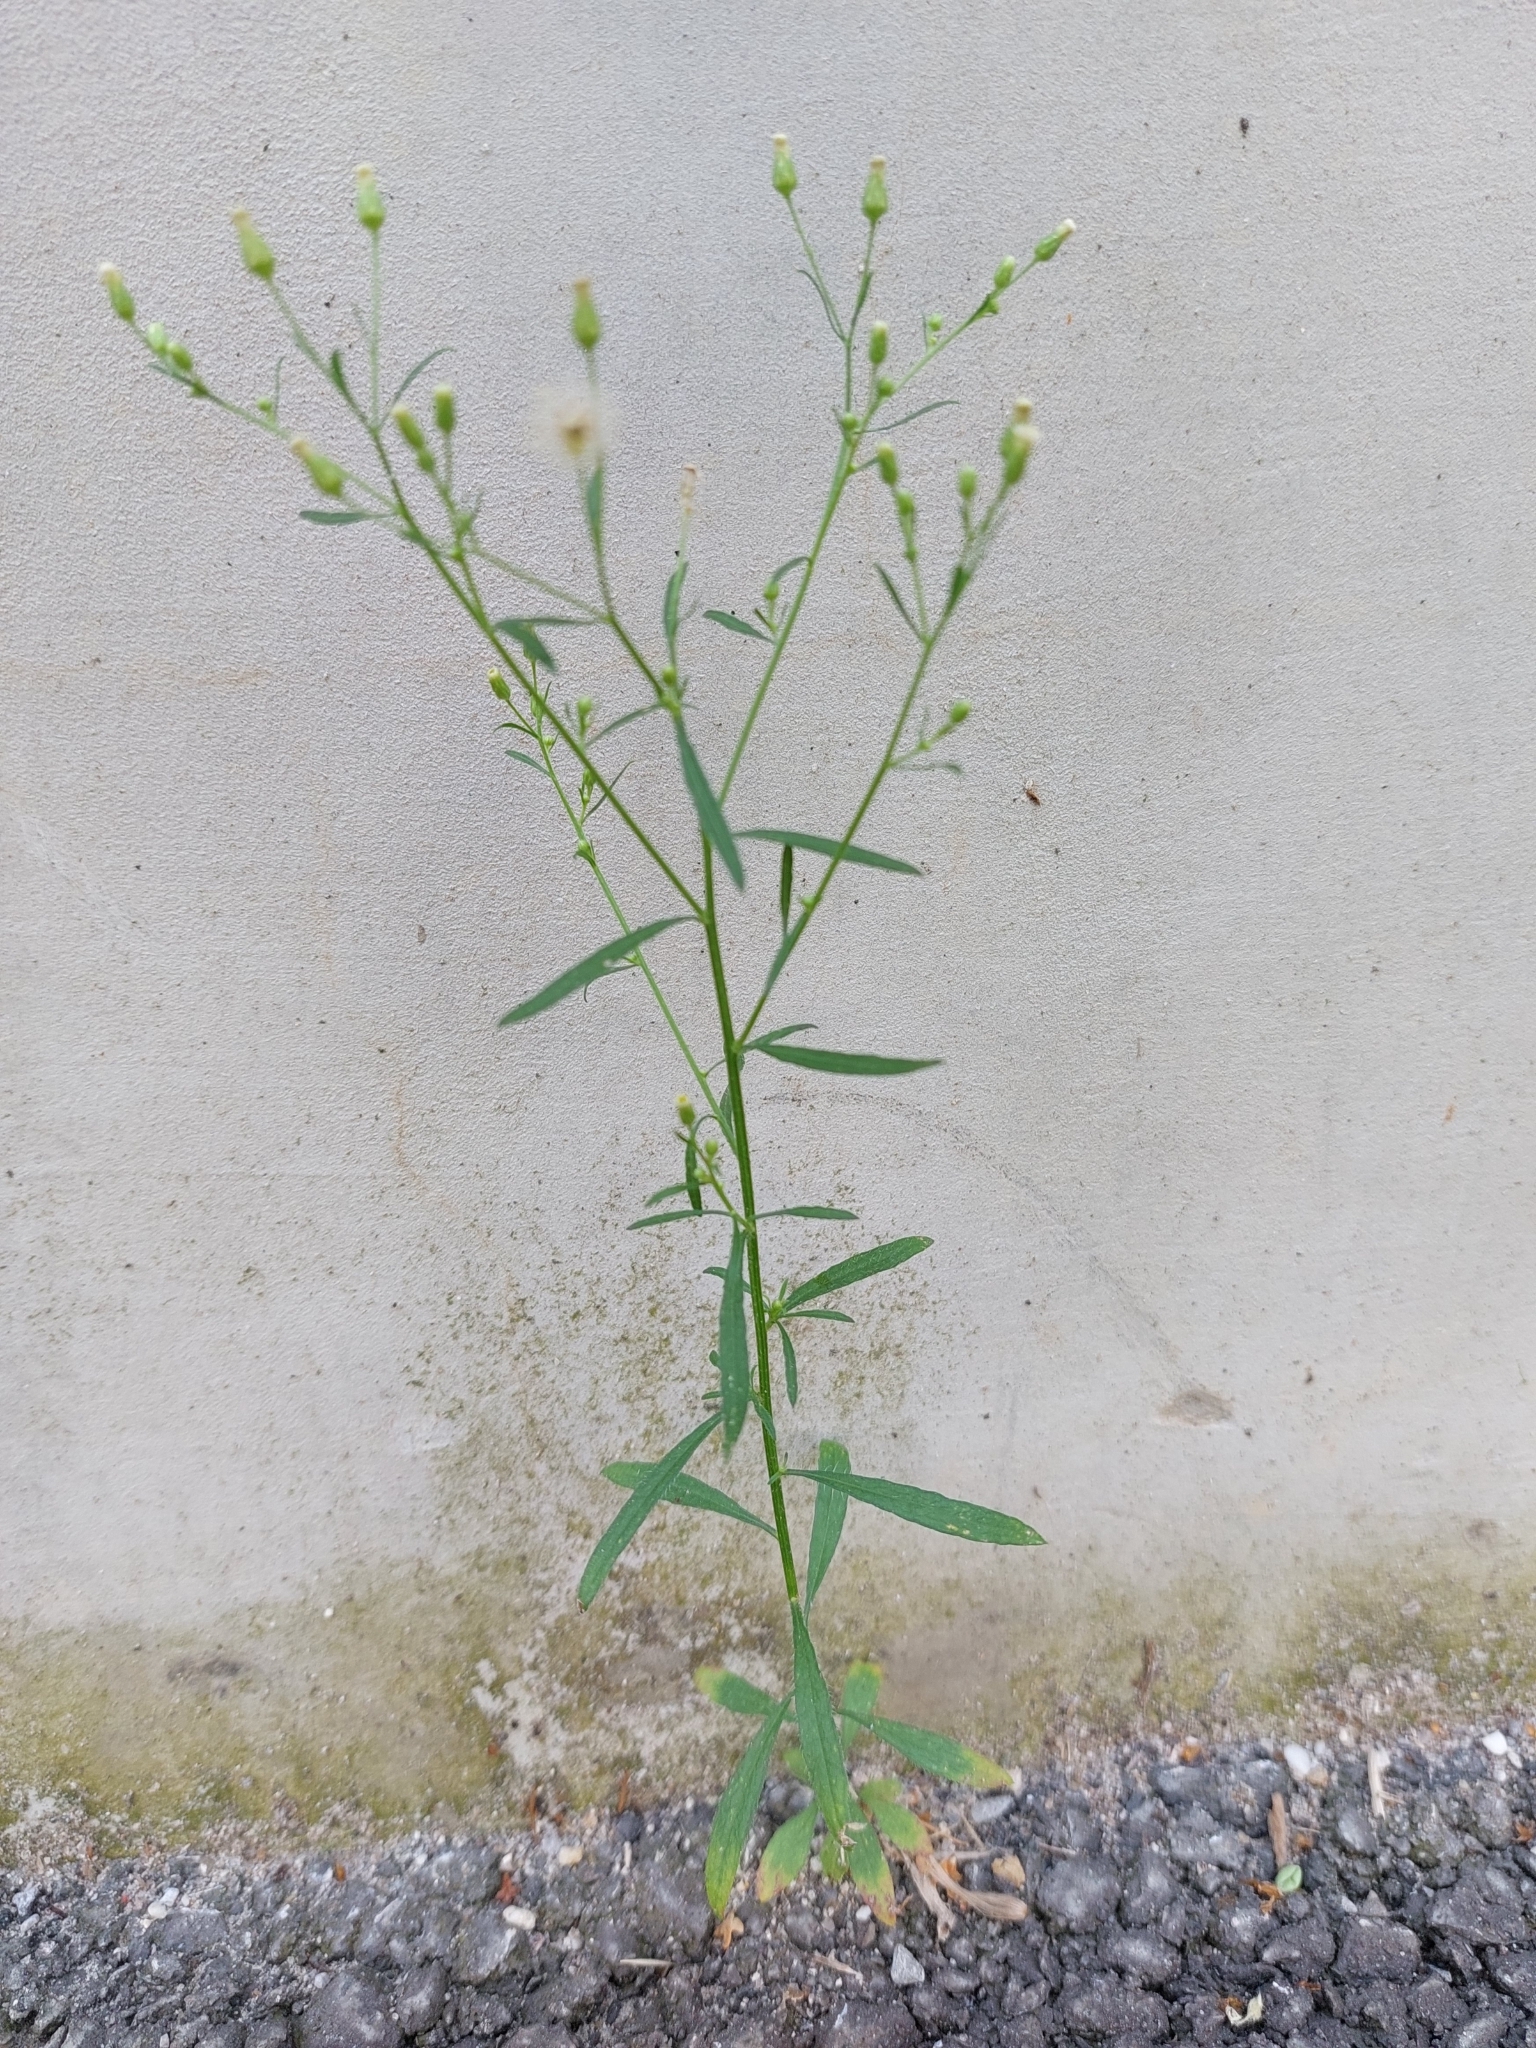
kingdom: Plantae
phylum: Tracheophyta
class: Magnoliopsida
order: Asterales
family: Asteraceae
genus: Erigeron
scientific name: Erigeron canadensis
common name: Canadian fleabane
